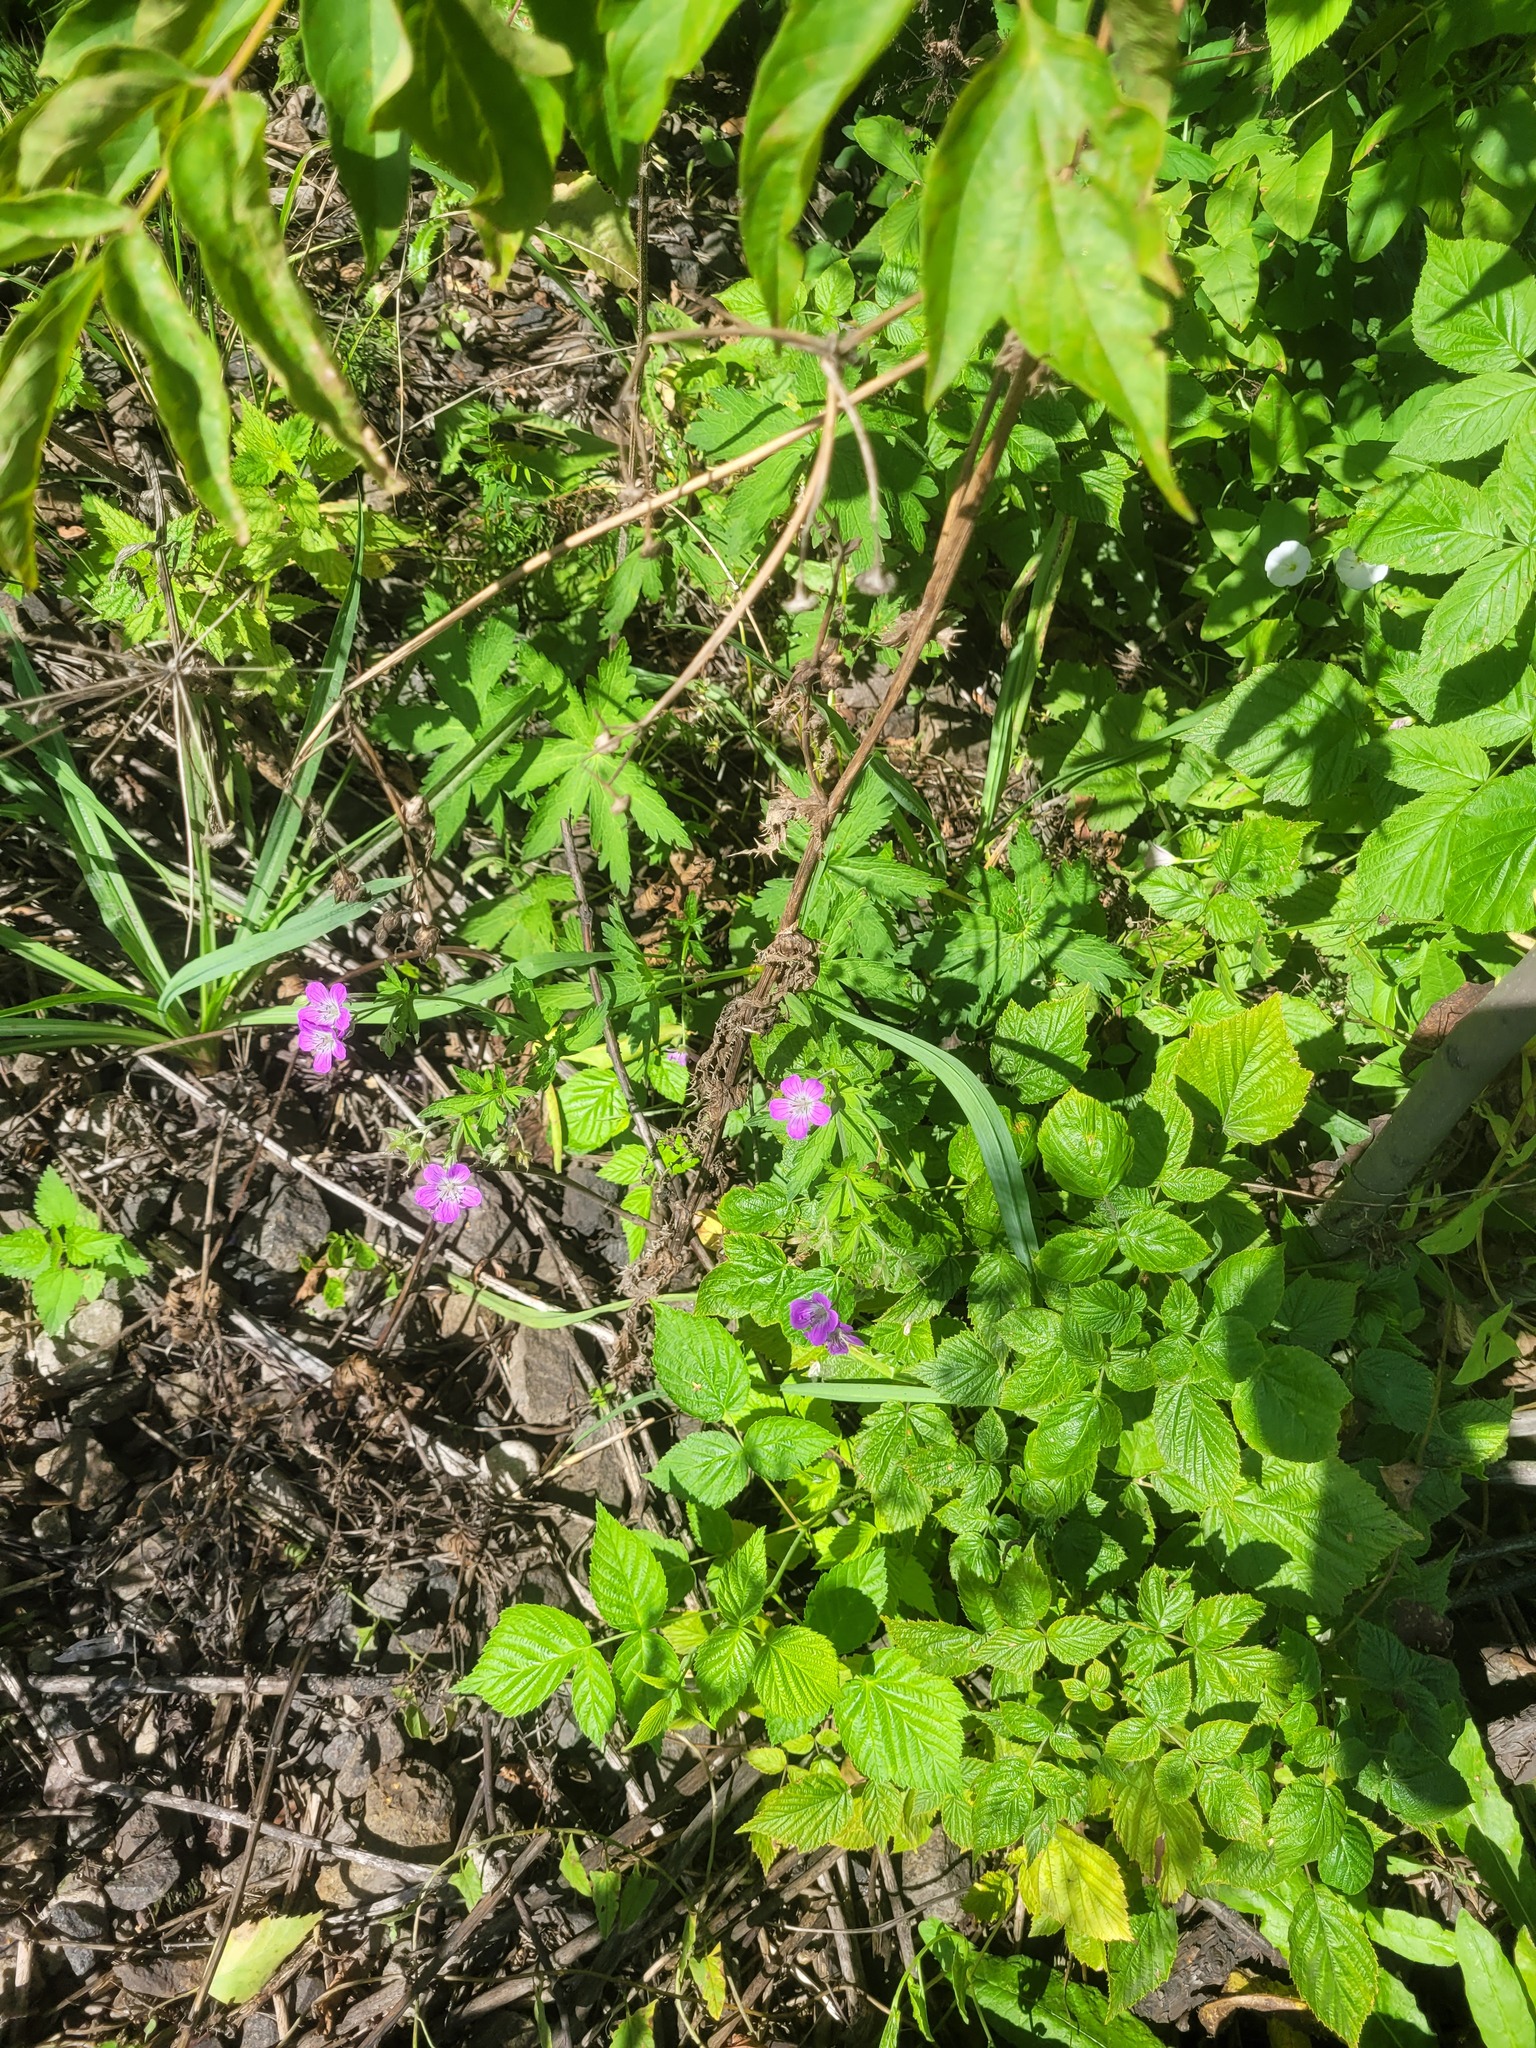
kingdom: Plantae
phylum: Tracheophyta
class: Magnoliopsida
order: Geraniales
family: Geraniaceae
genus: Geranium
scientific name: Geranium sylvaticum
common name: Wood crane's-bill
